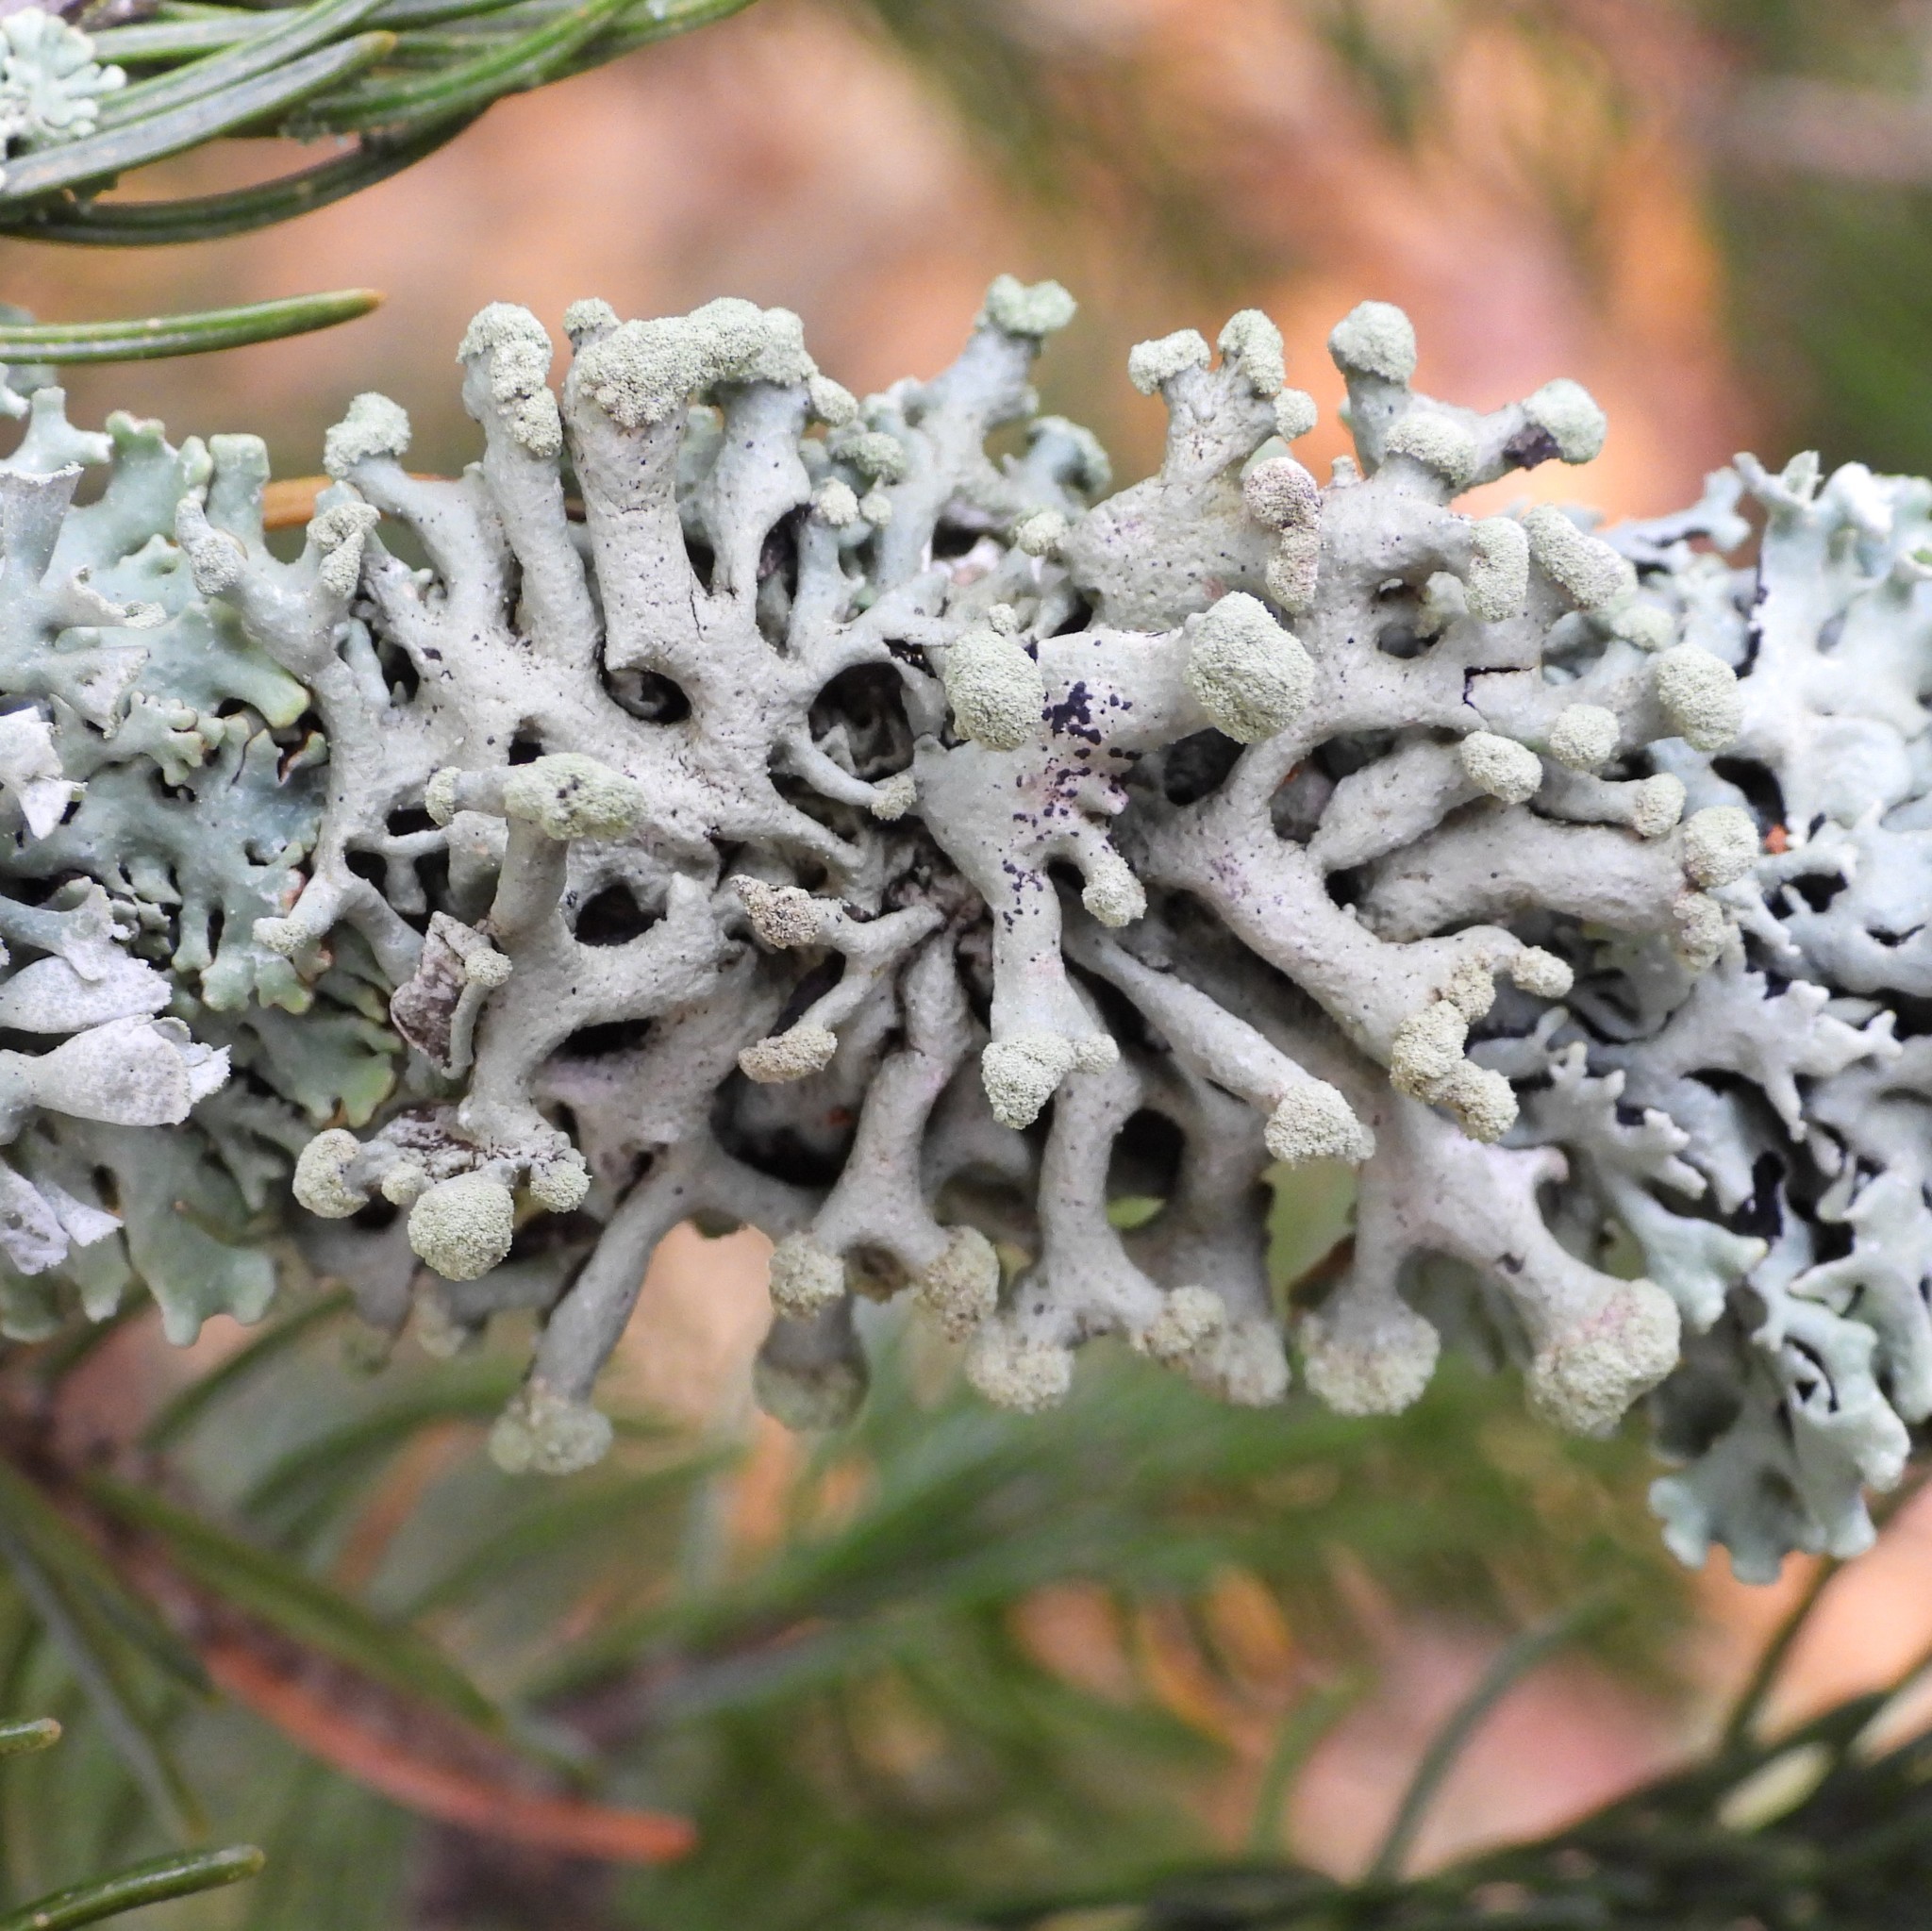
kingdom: Fungi
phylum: Ascomycota
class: Lecanoromycetes
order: Lecanorales
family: Parmeliaceae
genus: Hypogymnia
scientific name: Hypogymnia tubulosa
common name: Powder-headed tube lichen
